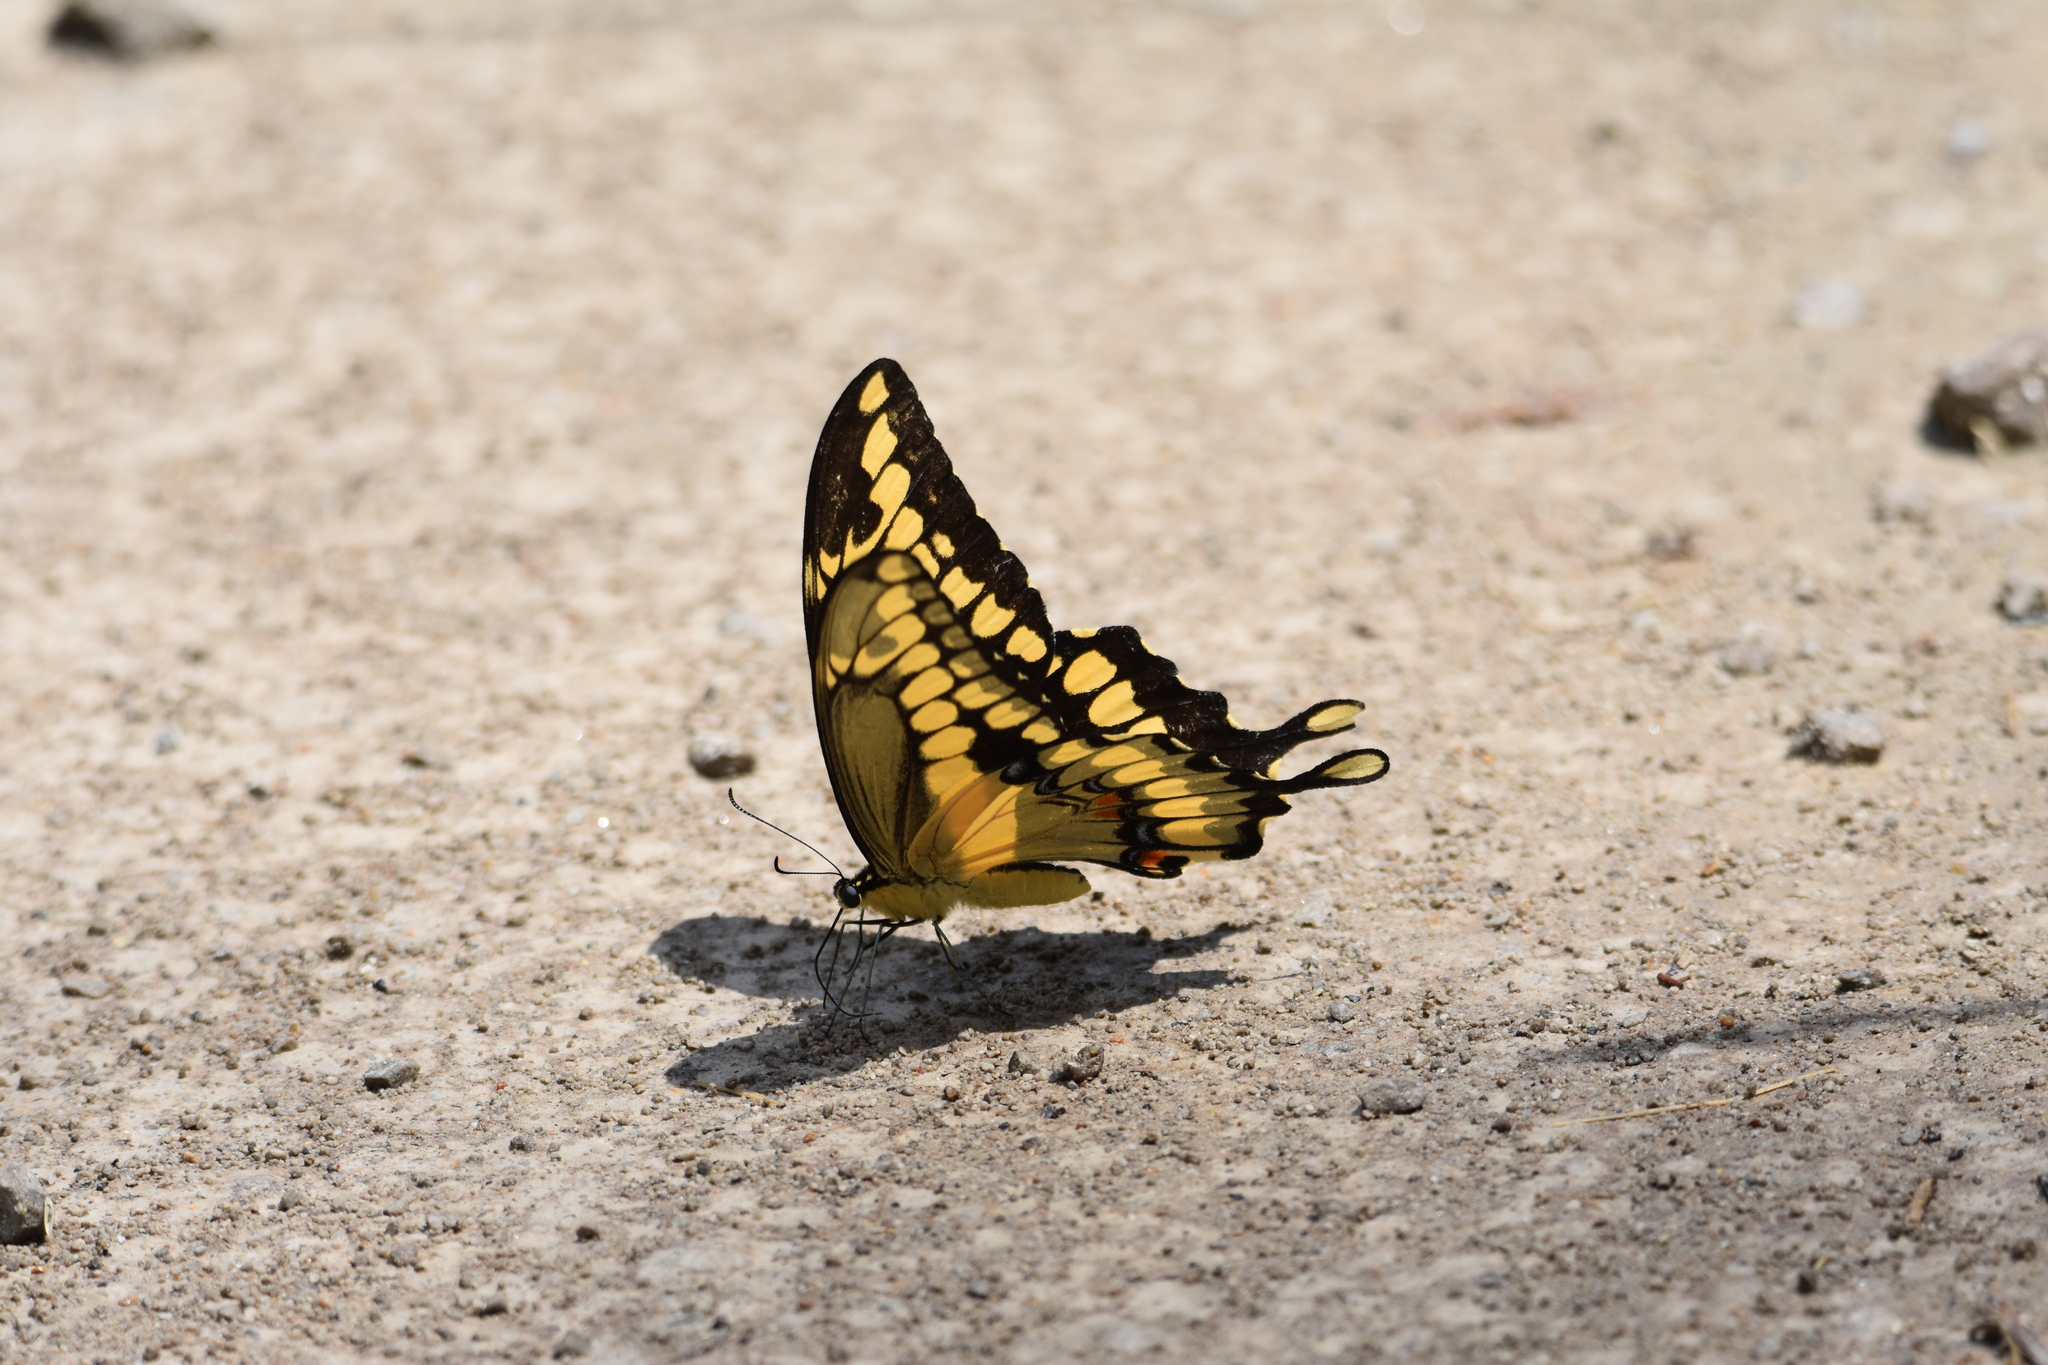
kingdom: Animalia
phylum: Arthropoda
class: Insecta
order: Lepidoptera
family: Papilionidae
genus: Papilio
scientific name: Papilio cresphontes
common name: Giant swallowtail
